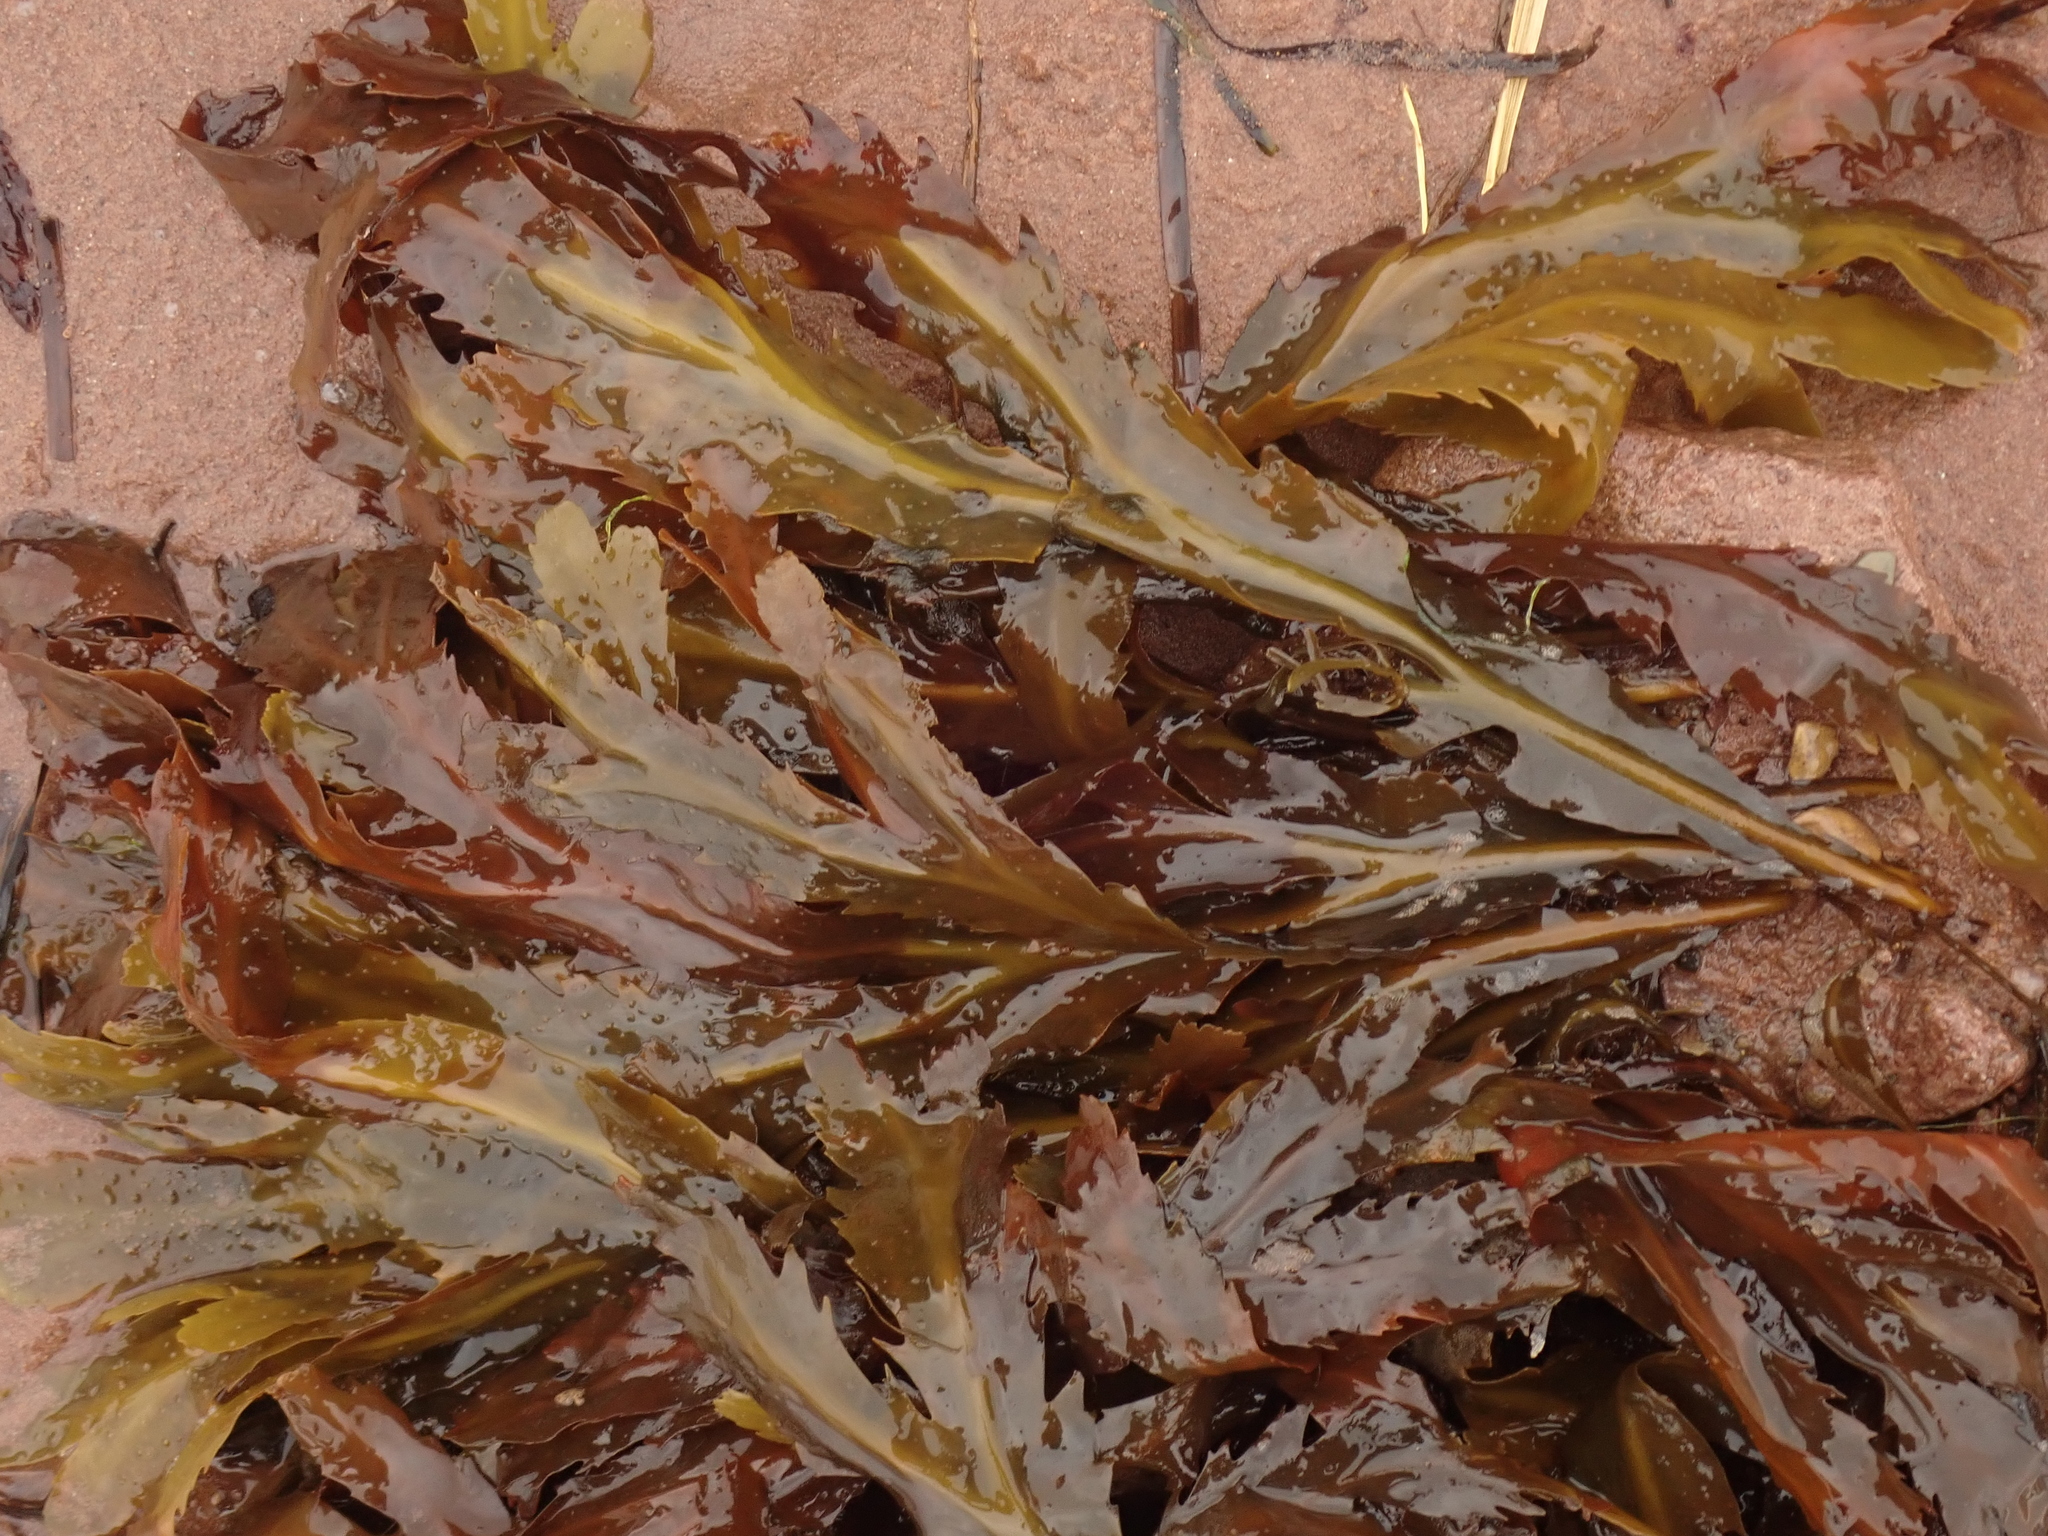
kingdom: Chromista
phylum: Ochrophyta
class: Phaeophyceae
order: Fucales
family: Fucaceae
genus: Fucus
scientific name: Fucus serratus
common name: Toothed wrack
